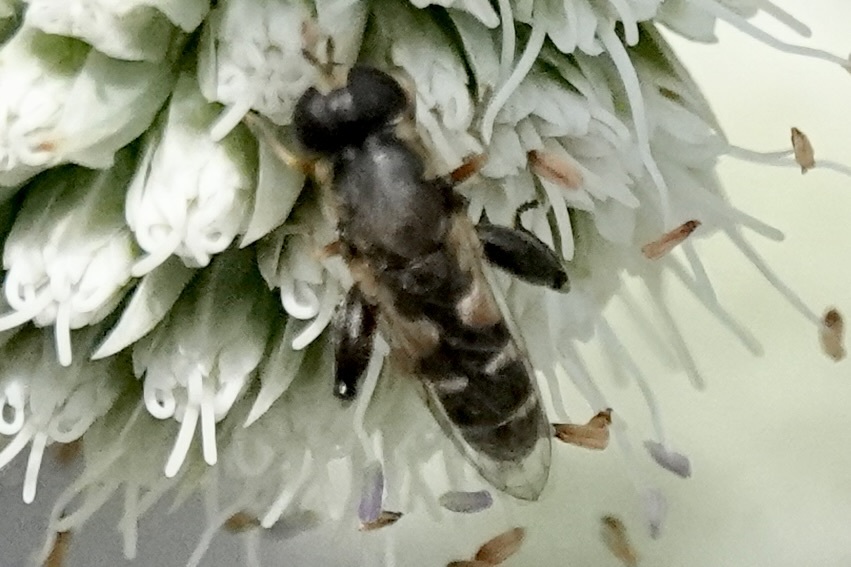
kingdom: Animalia
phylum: Arthropoda
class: Insecta
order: Diptera
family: Syrphidae
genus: Syritta
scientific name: Syritta pipiens
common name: Hover fly
